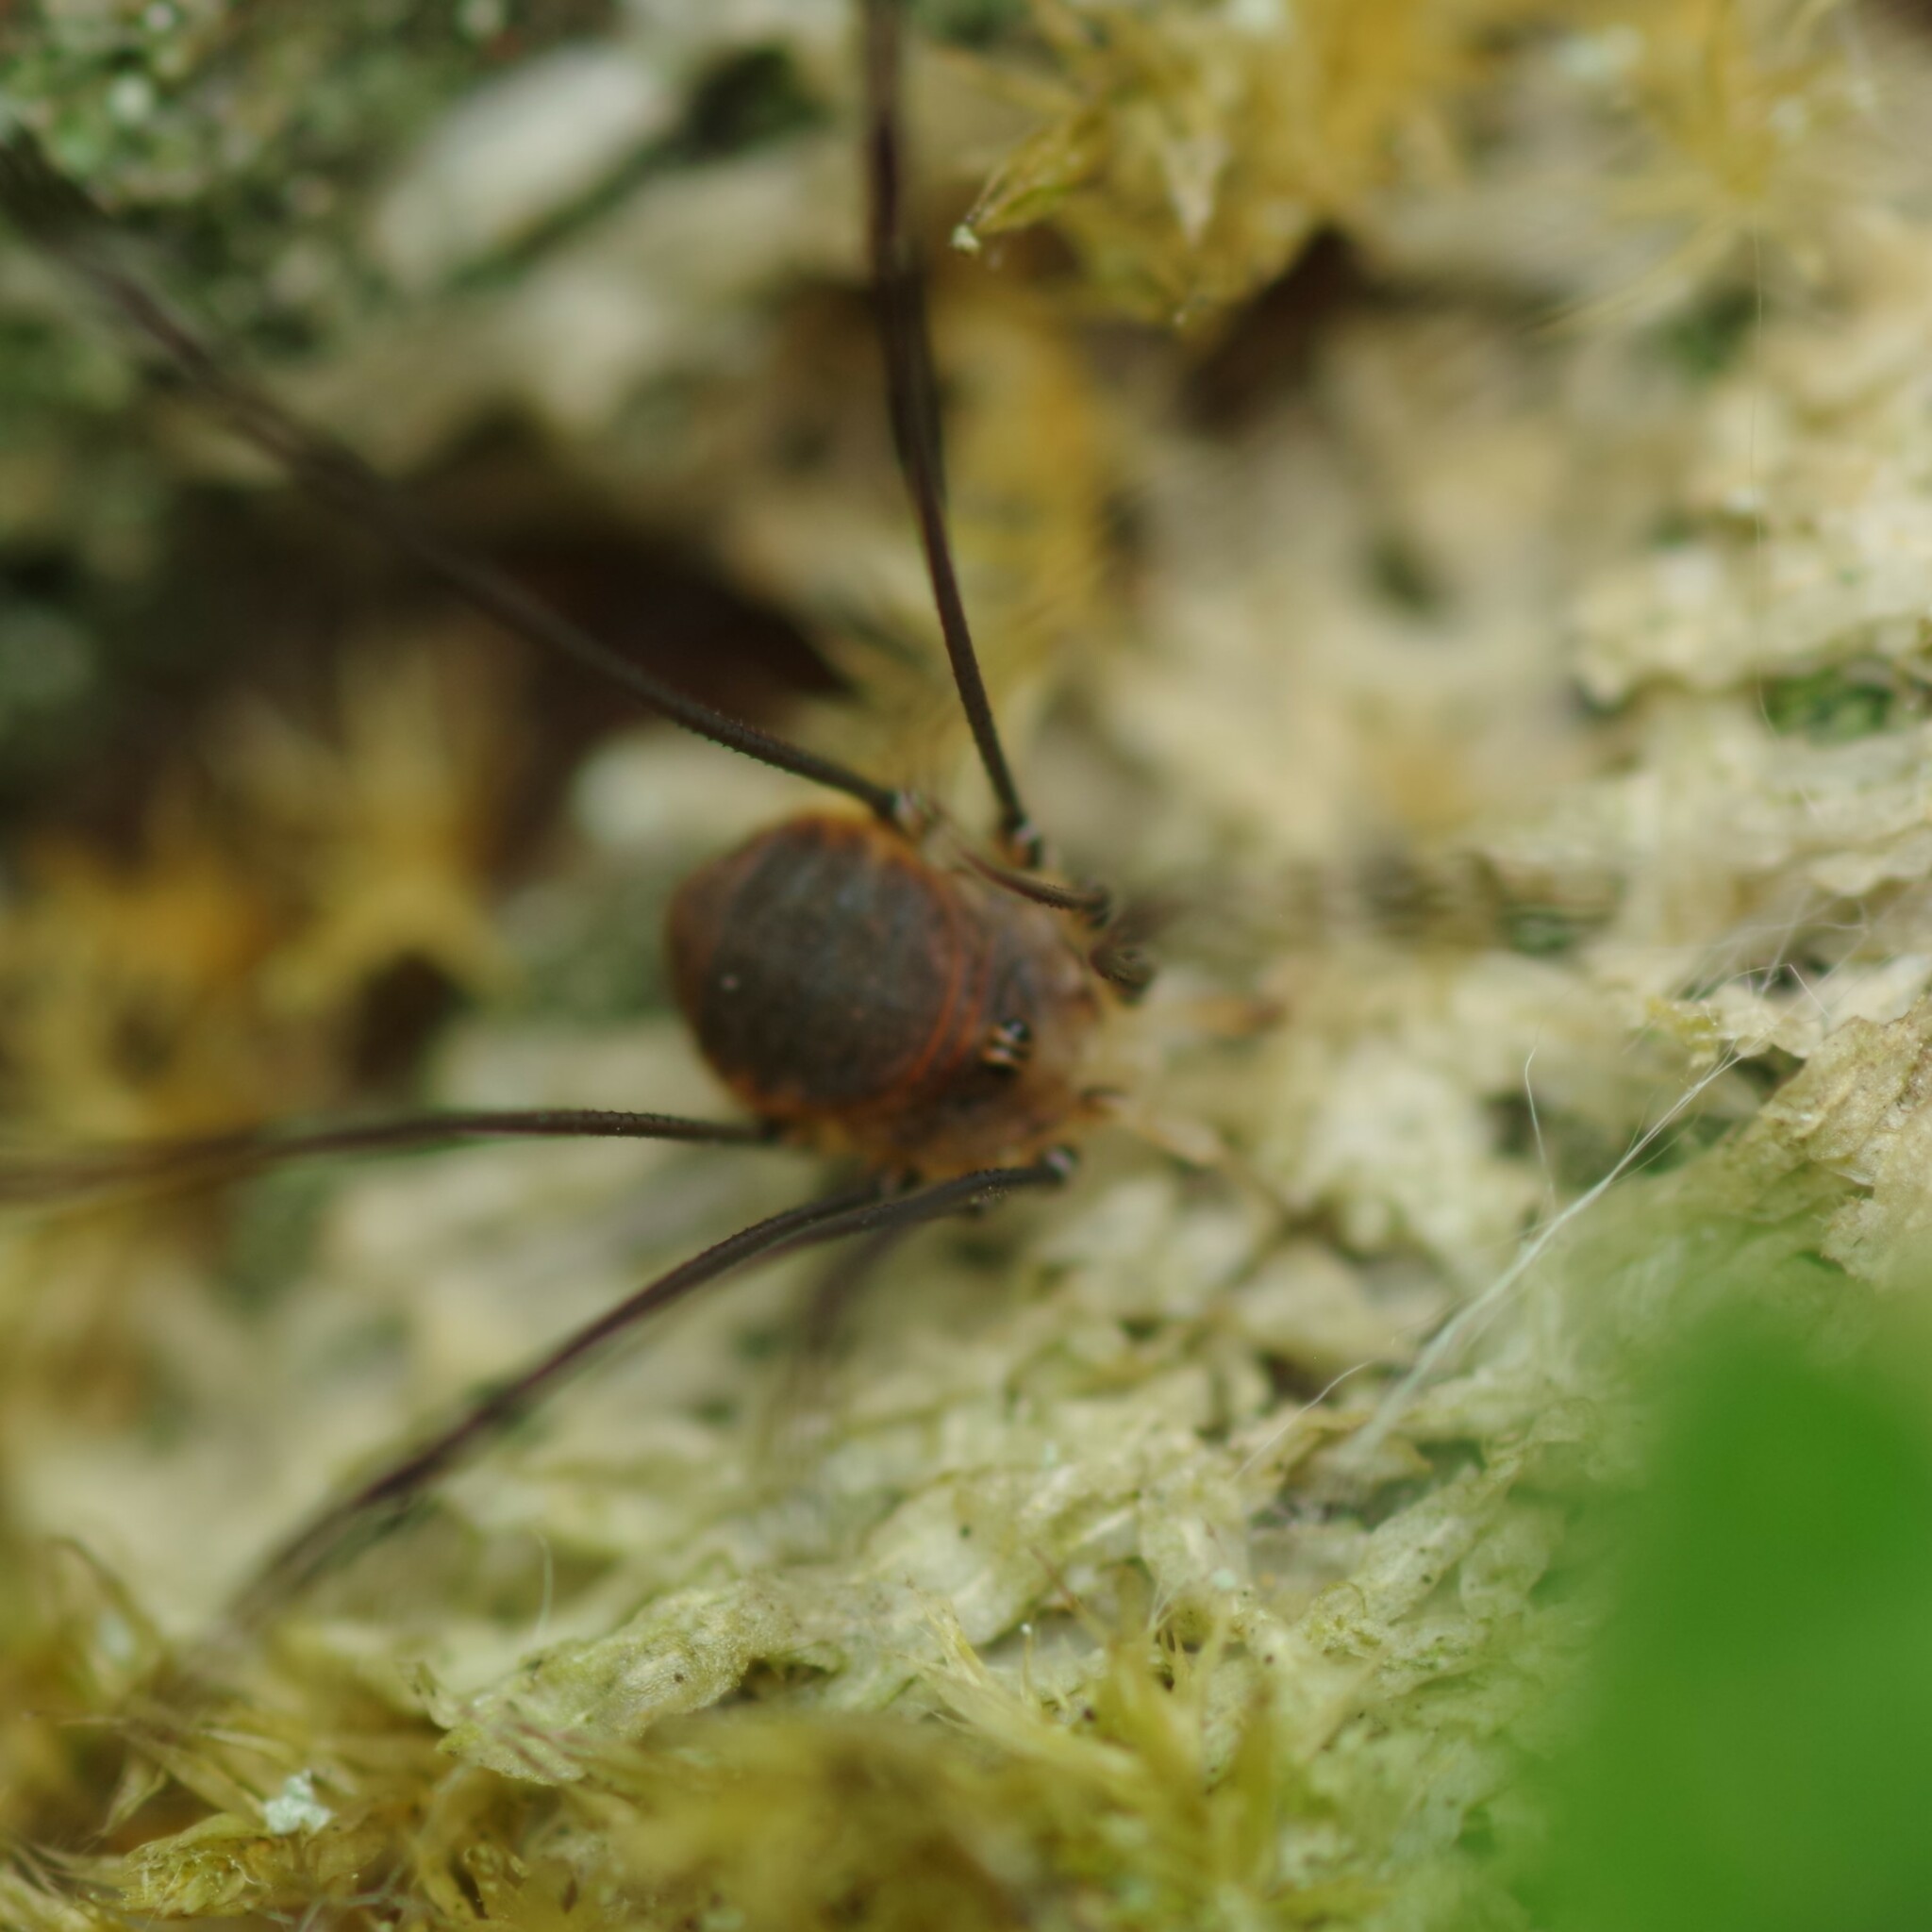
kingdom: Animalia
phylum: Arthropoda
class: Arachnida
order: Opiliones
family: Sclerosomatidae
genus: Leiobunum
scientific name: Leiobunum blackwalli
